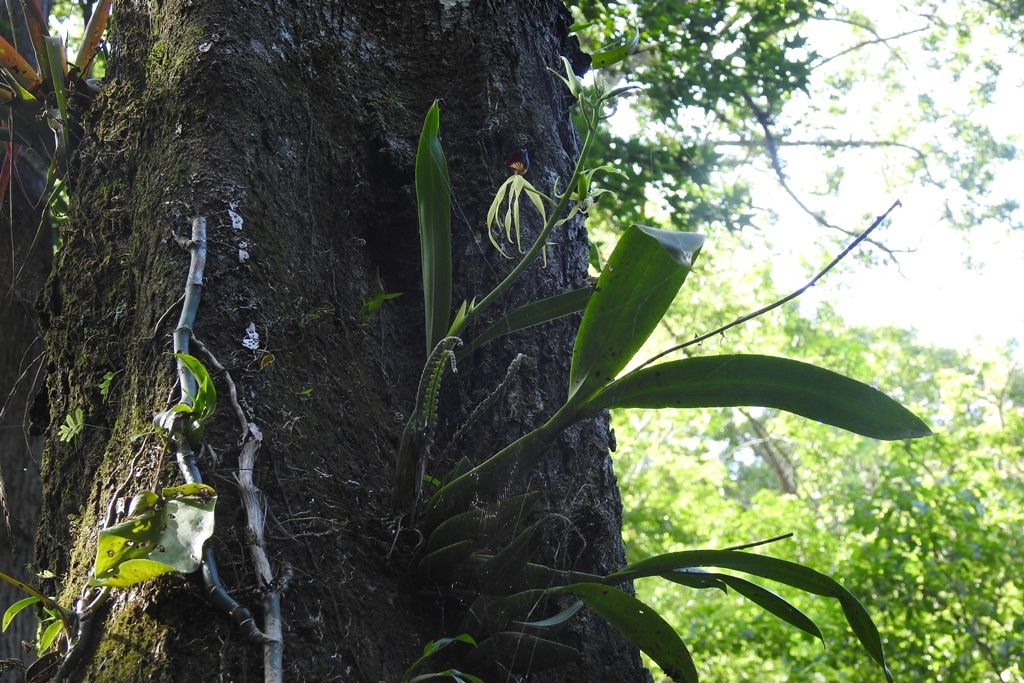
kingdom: Plantae
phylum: Tracheophyta
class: Liliopsida
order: Asparagales
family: Orchidaceae
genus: Prosthechea
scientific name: Prosthechea cochleata
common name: Clamshell orchid
